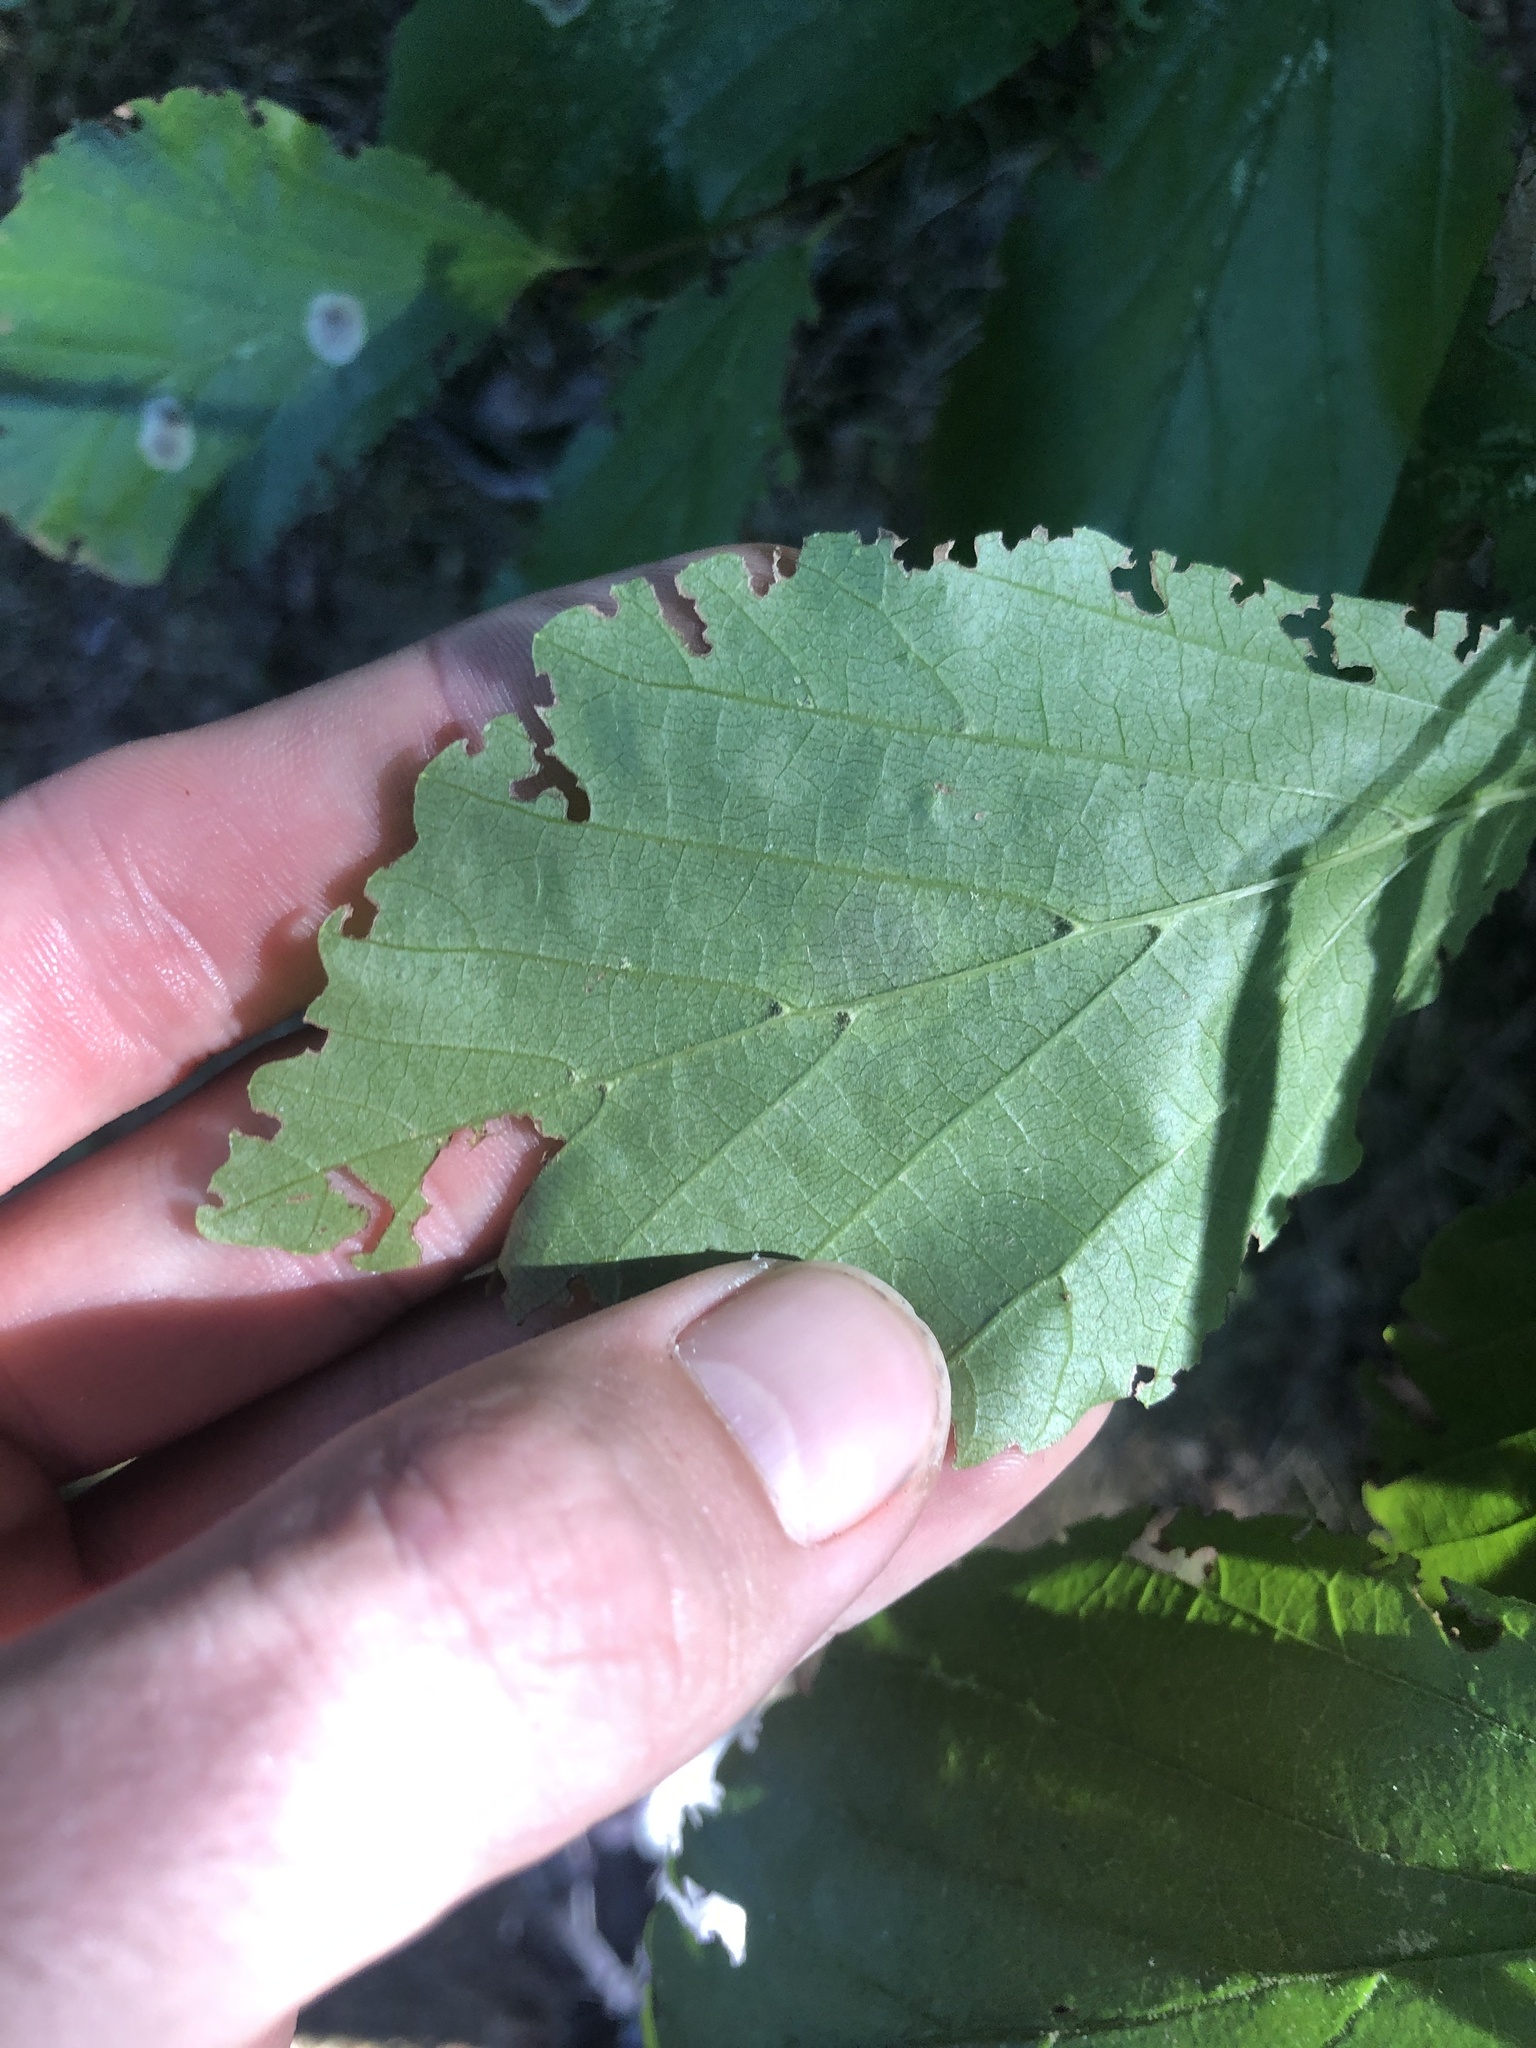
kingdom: Animalia
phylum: Arthropoda
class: Insecta
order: Lepidoptera
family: Gracillariidae
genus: Cameraria
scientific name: Cameraria hamameliella
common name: Witchhazel leafminer
